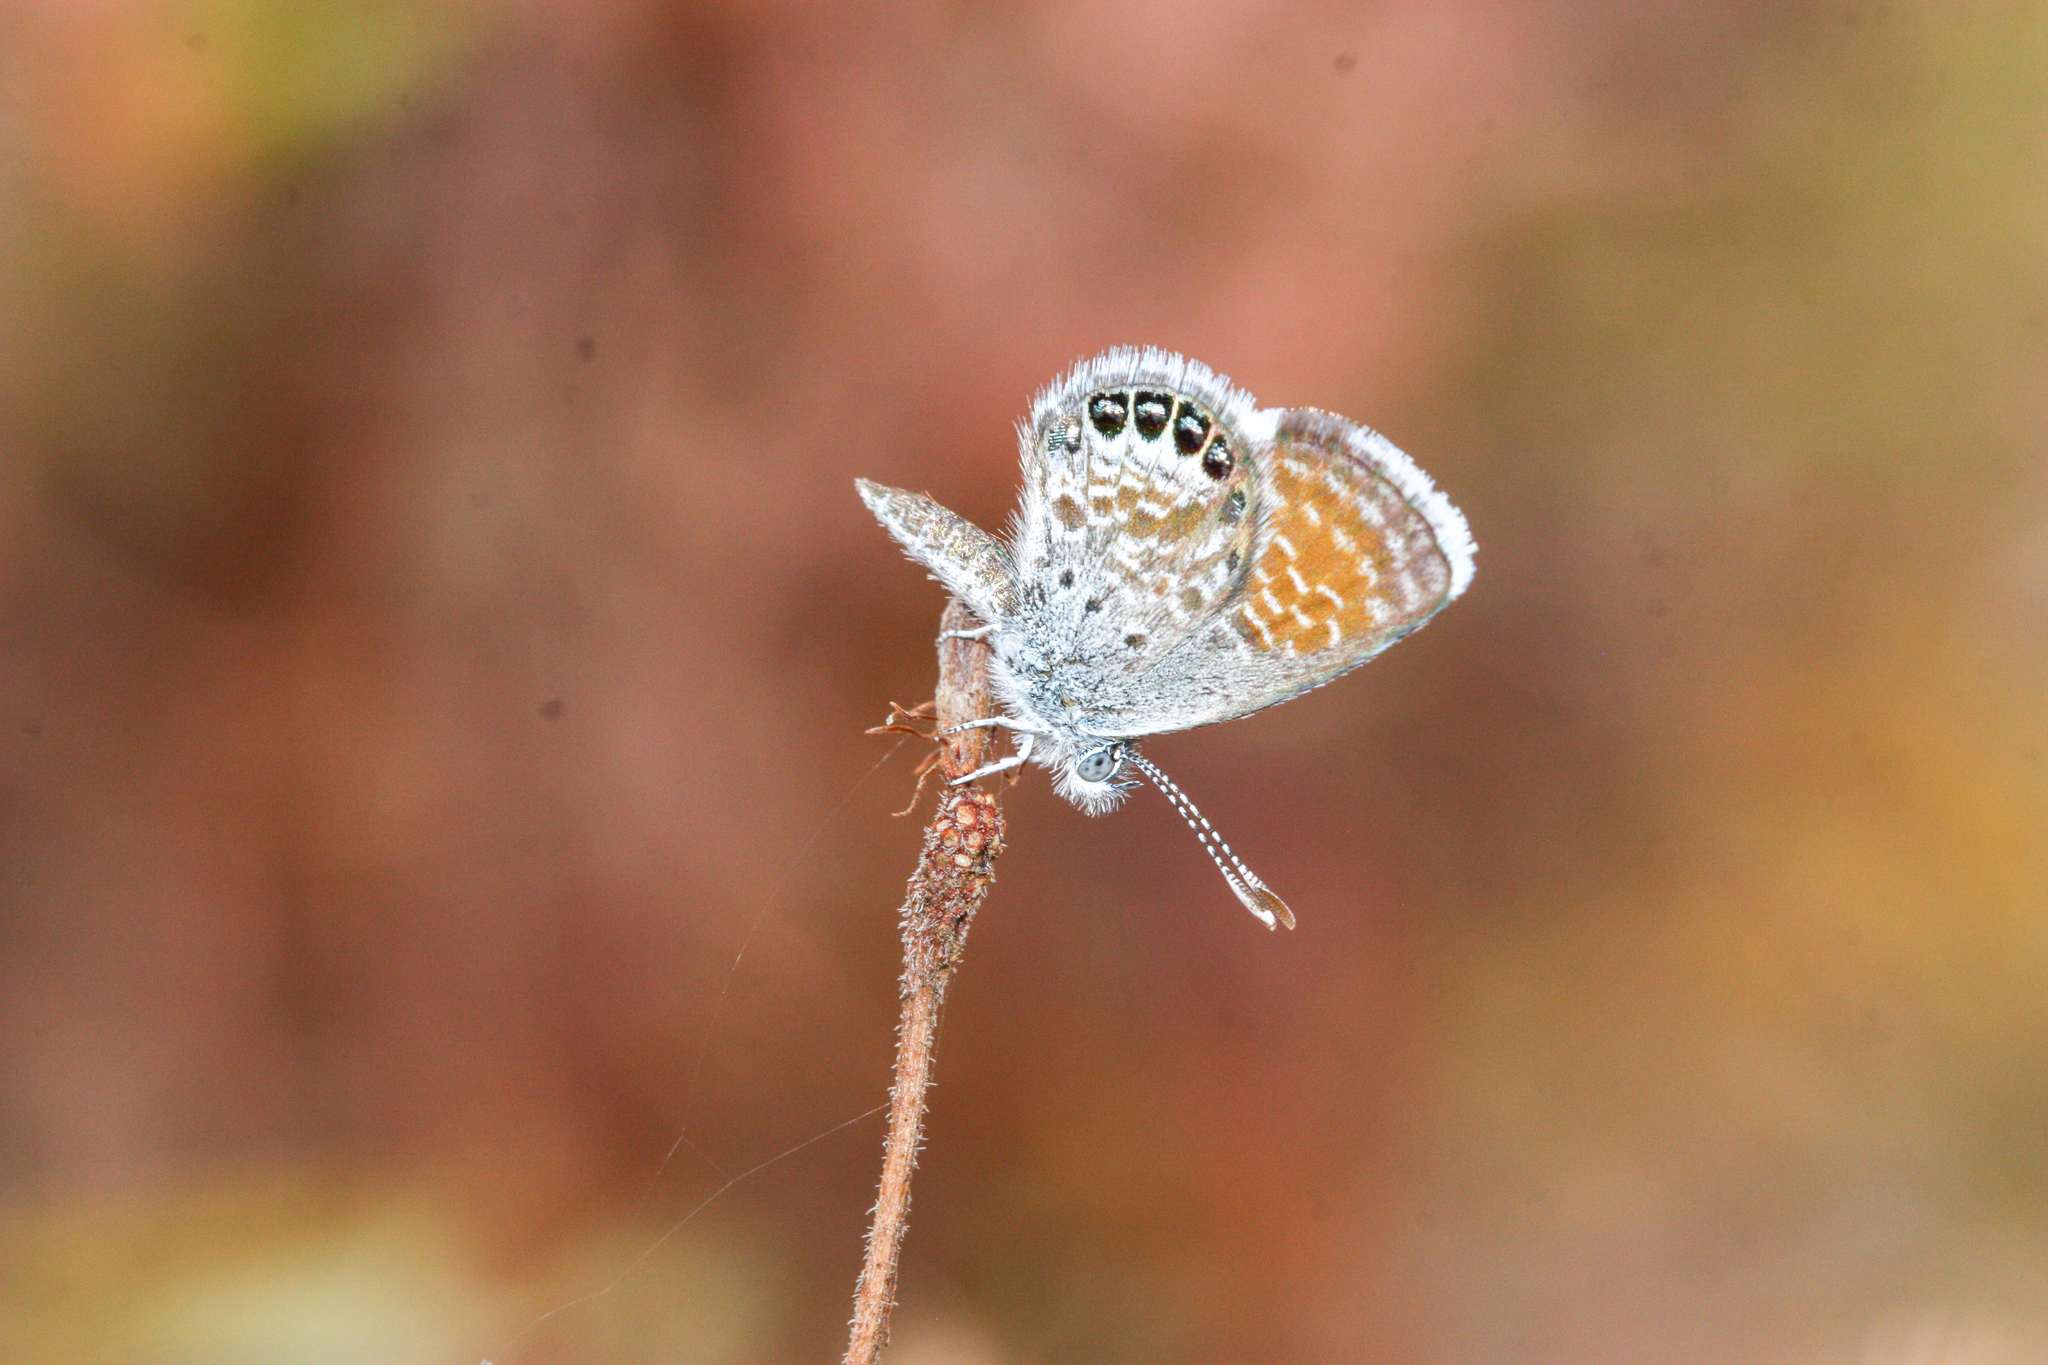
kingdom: Animalia
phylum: Arthropoda
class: Insecta
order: Lepidoptera
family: Lycaenidae
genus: Brephidium
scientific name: Brephidium exilis
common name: Pygmy blue
